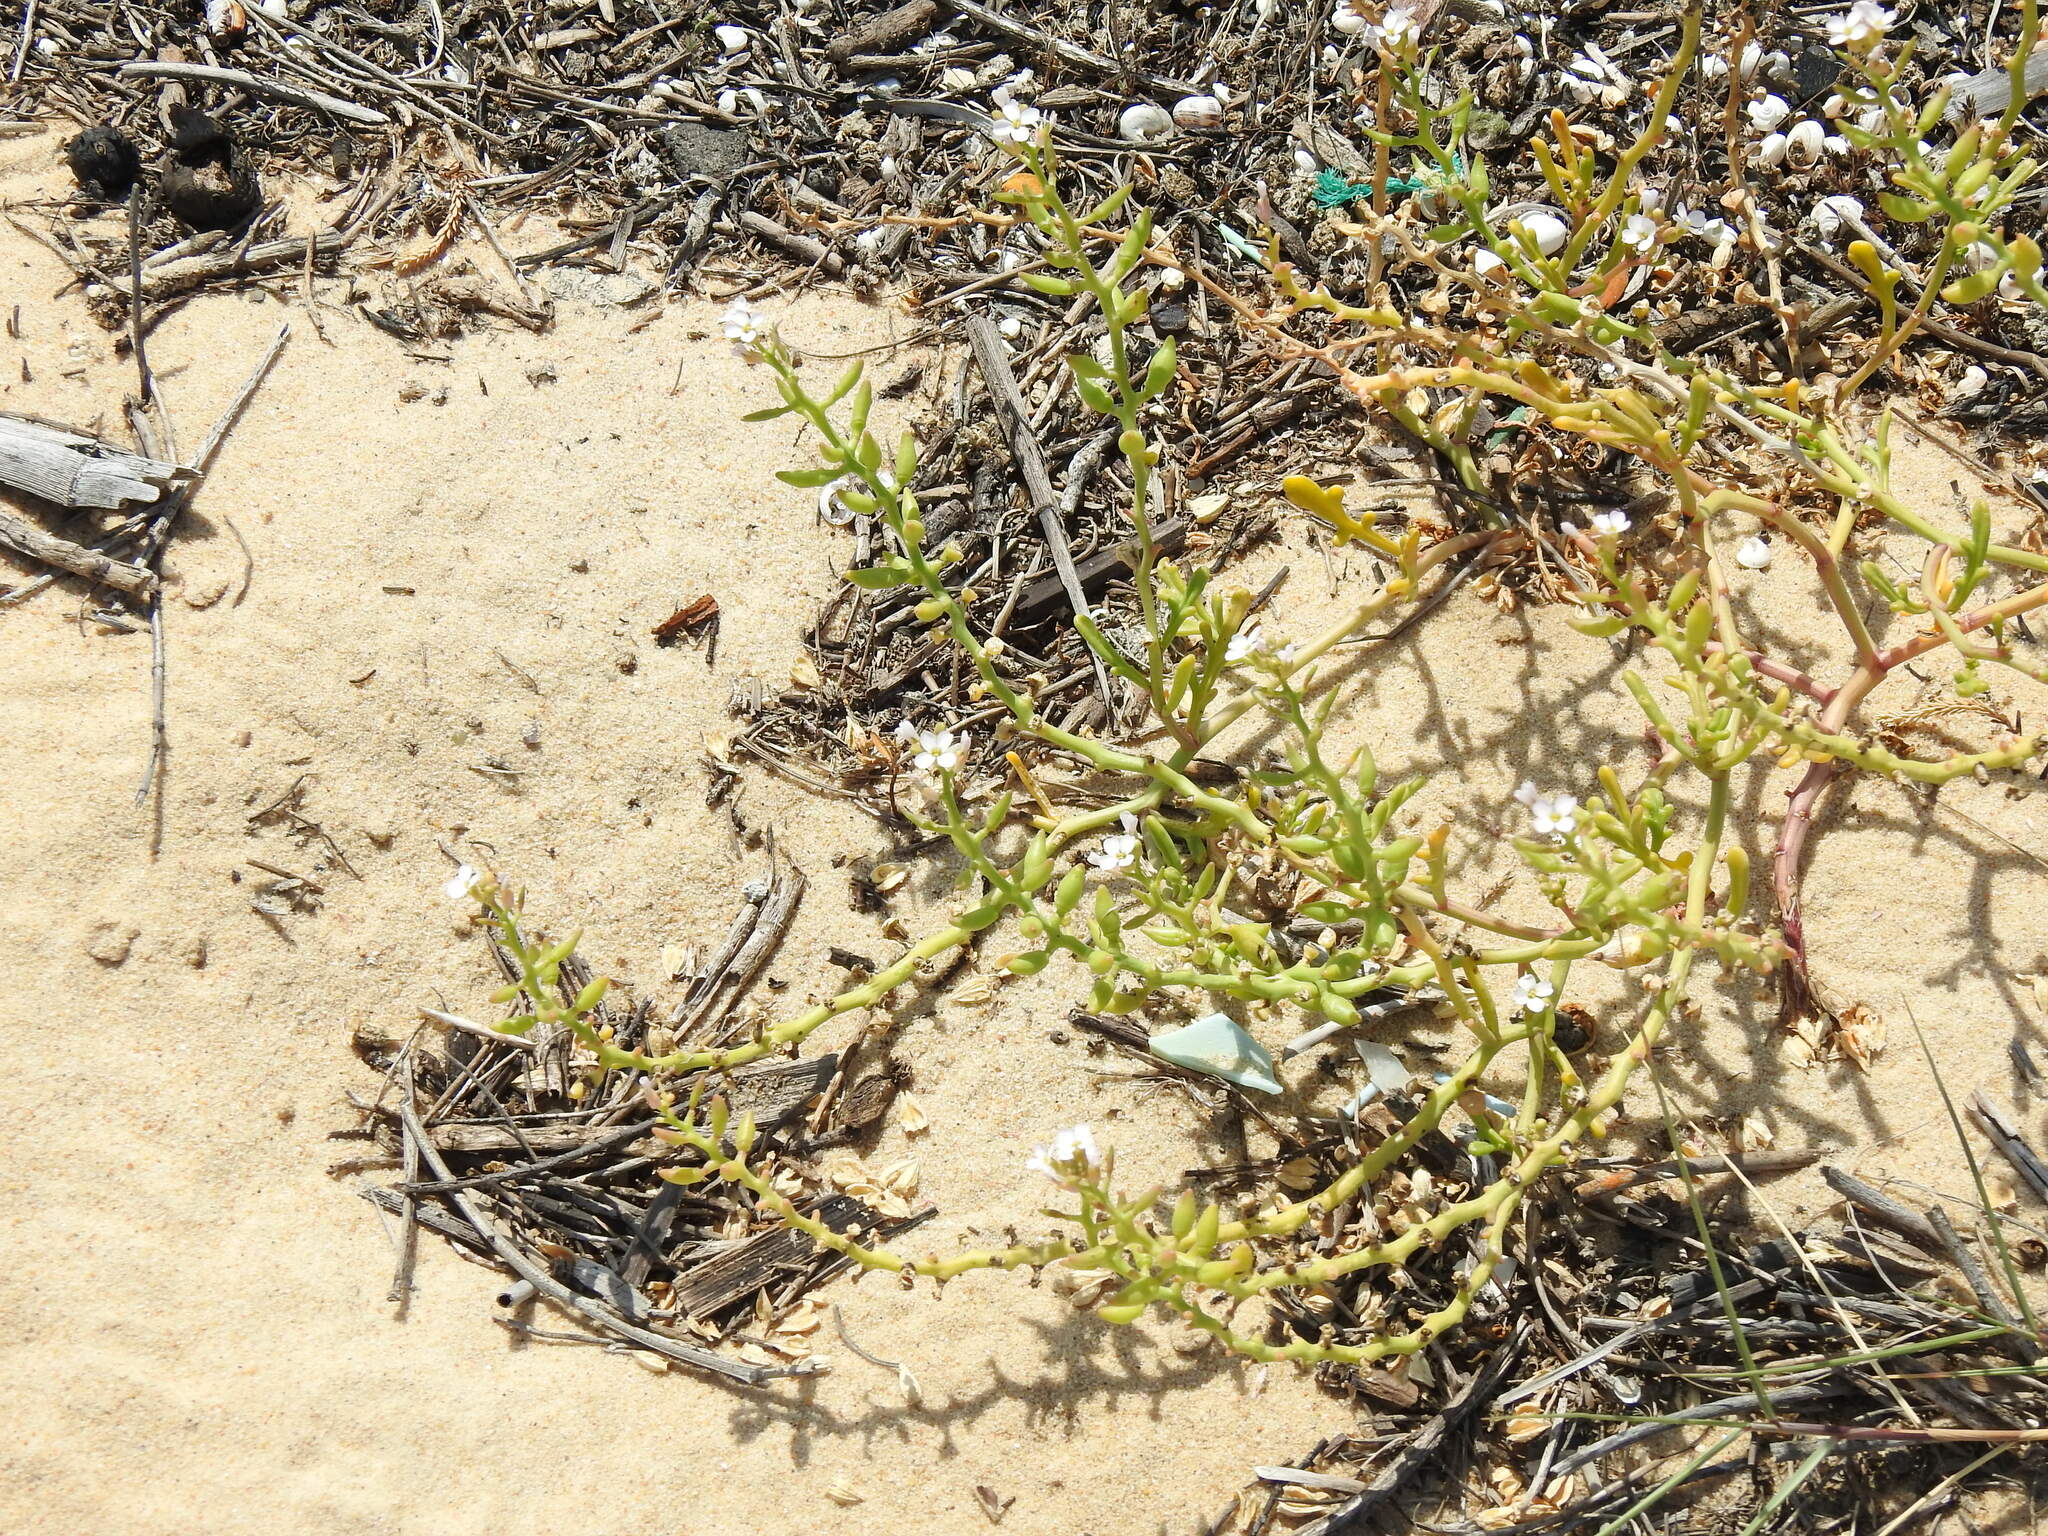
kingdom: Plantae
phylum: Tracheophyta
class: Magnoliopsida
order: Brassicales
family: Brassicaceae
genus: Cakile
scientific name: Cakile maritima
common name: Sea rocket
